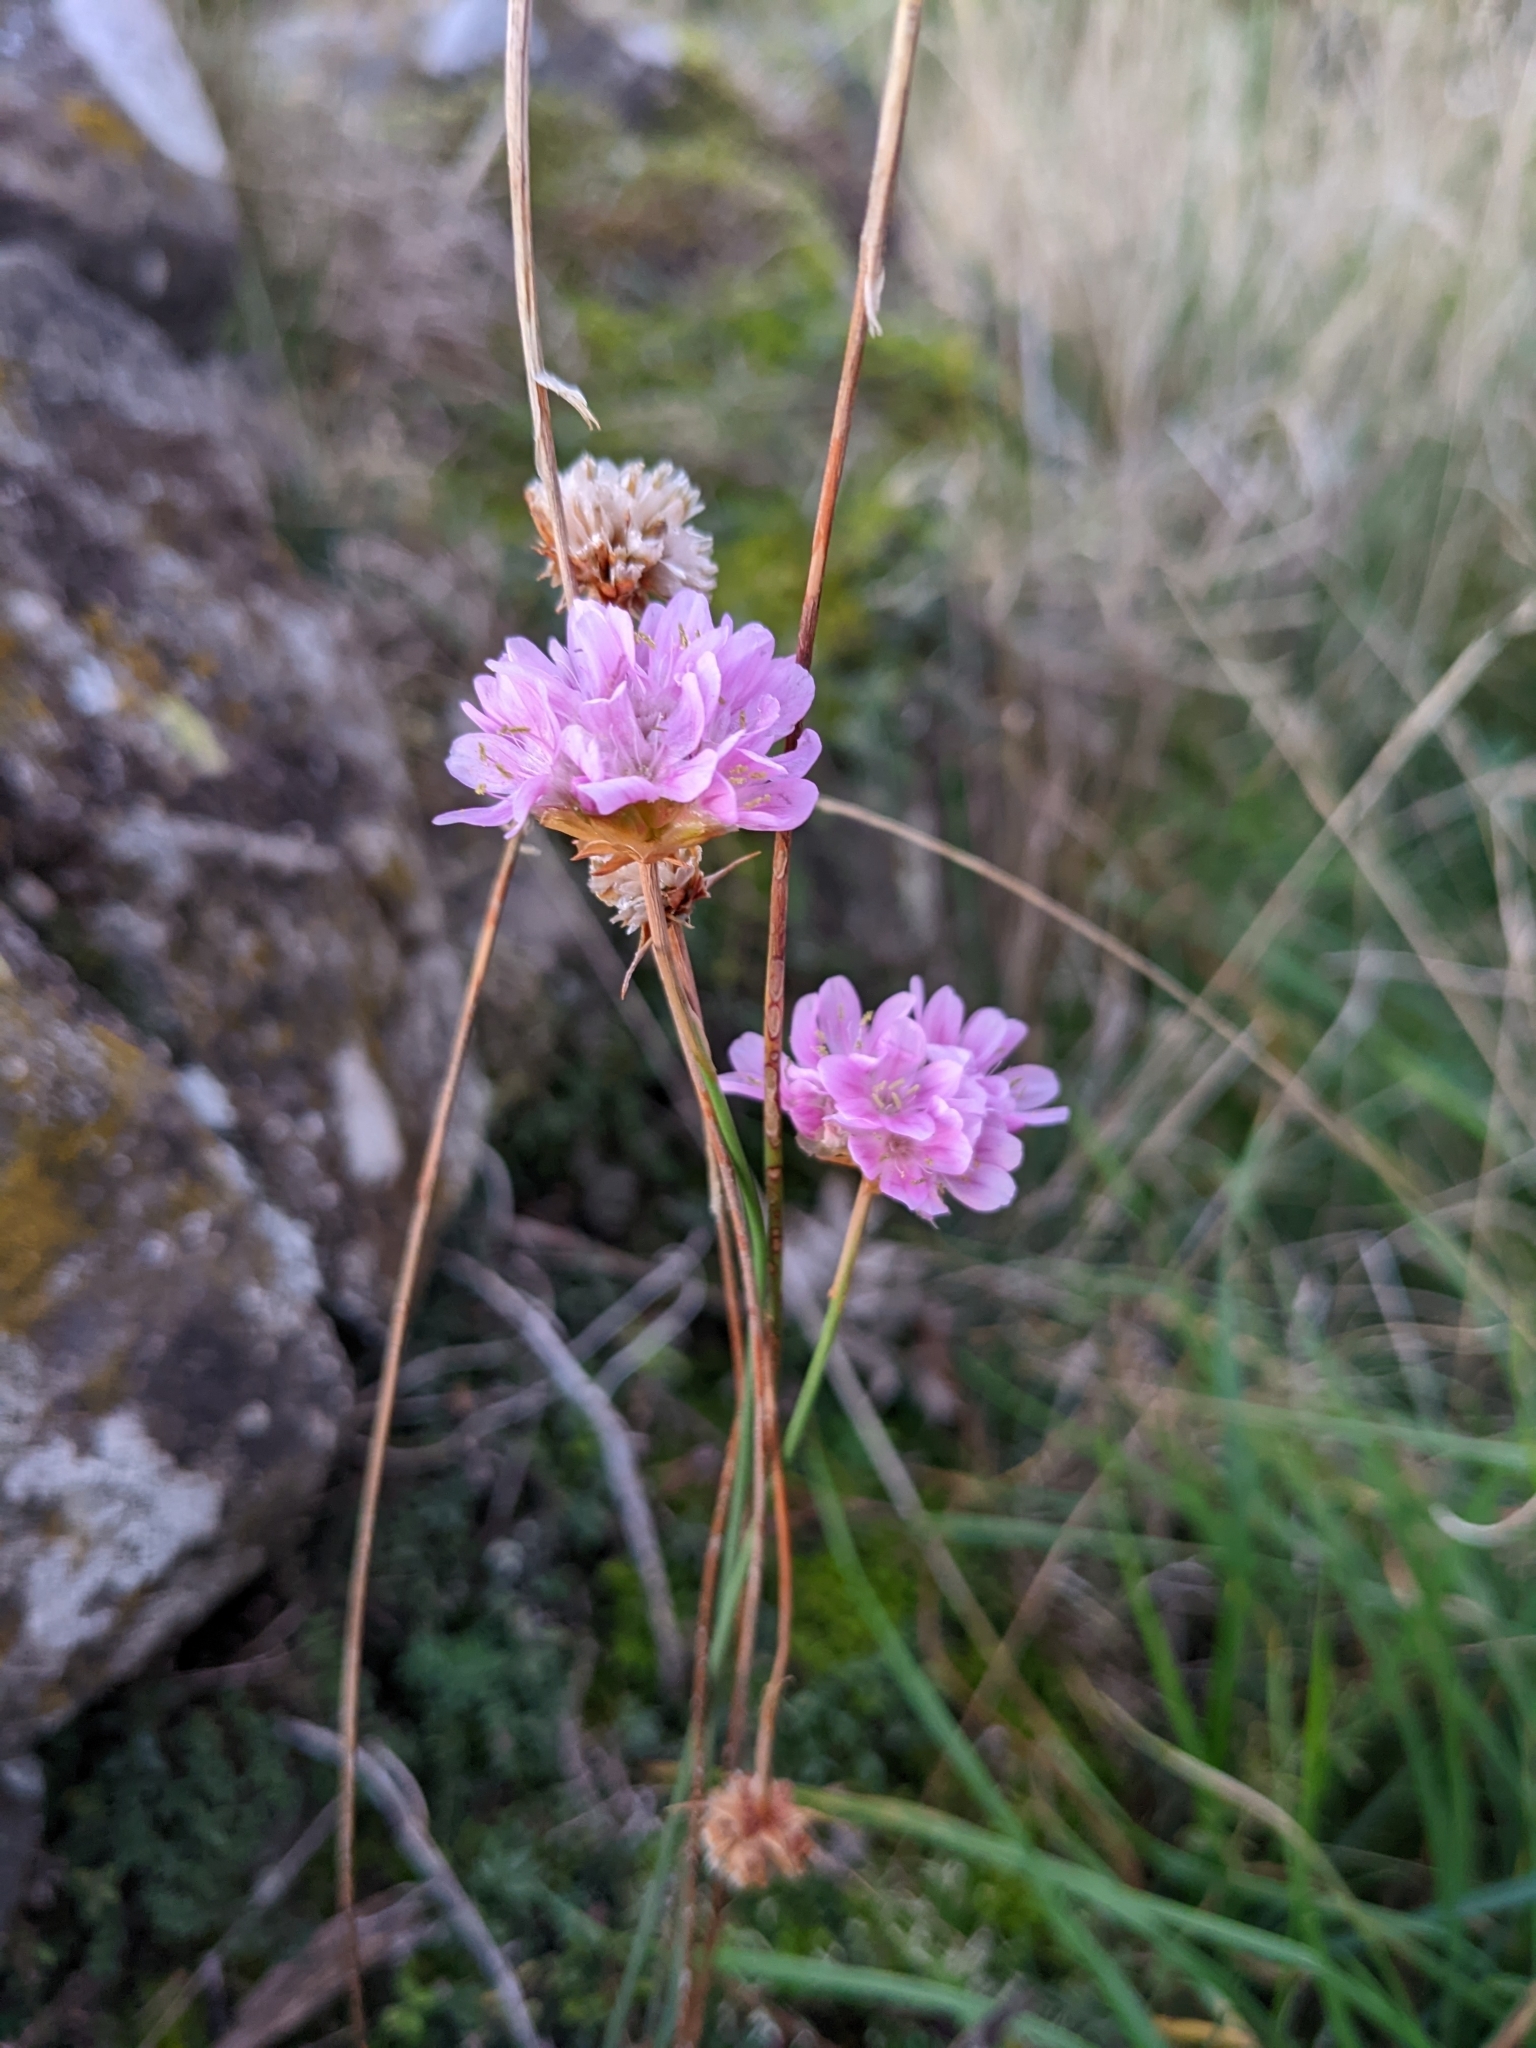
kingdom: Plantae
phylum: Tracheophyta
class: Magnoliopsida
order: Caryophyllales
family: Plumbaginaceae
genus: Armeria
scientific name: Armeria arenaria
